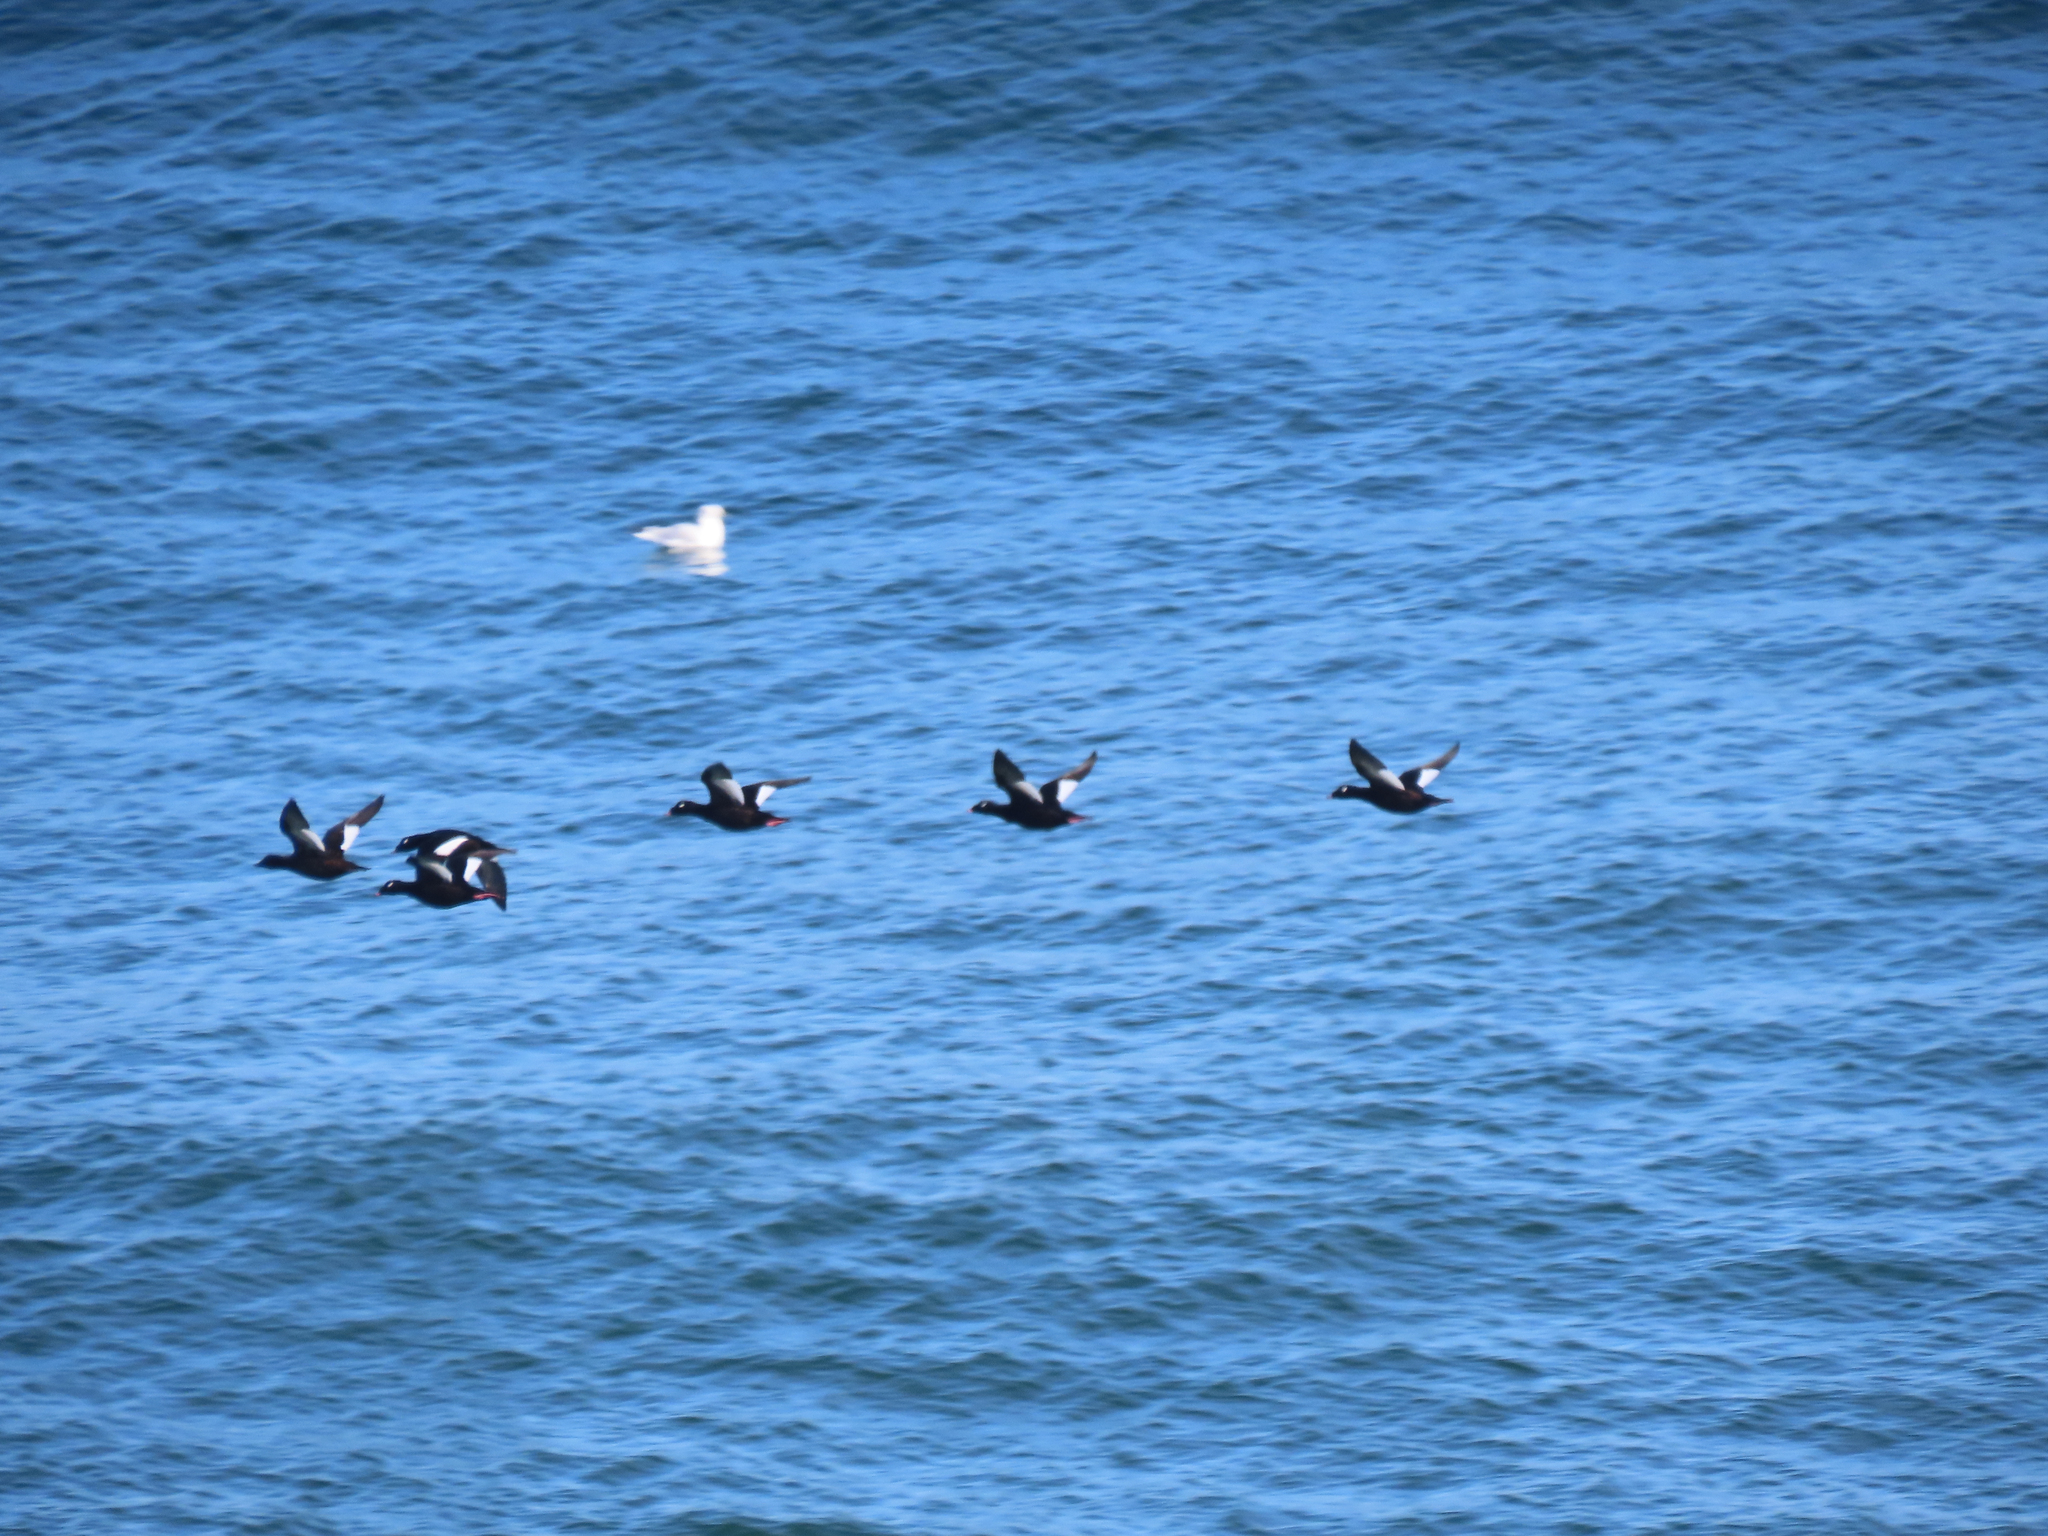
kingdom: Animalia
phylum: Chordata
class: Aves
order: Anseriformes
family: Anatidae
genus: Melanitta
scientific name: Melanitta deglandi
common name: White-winged scoter
